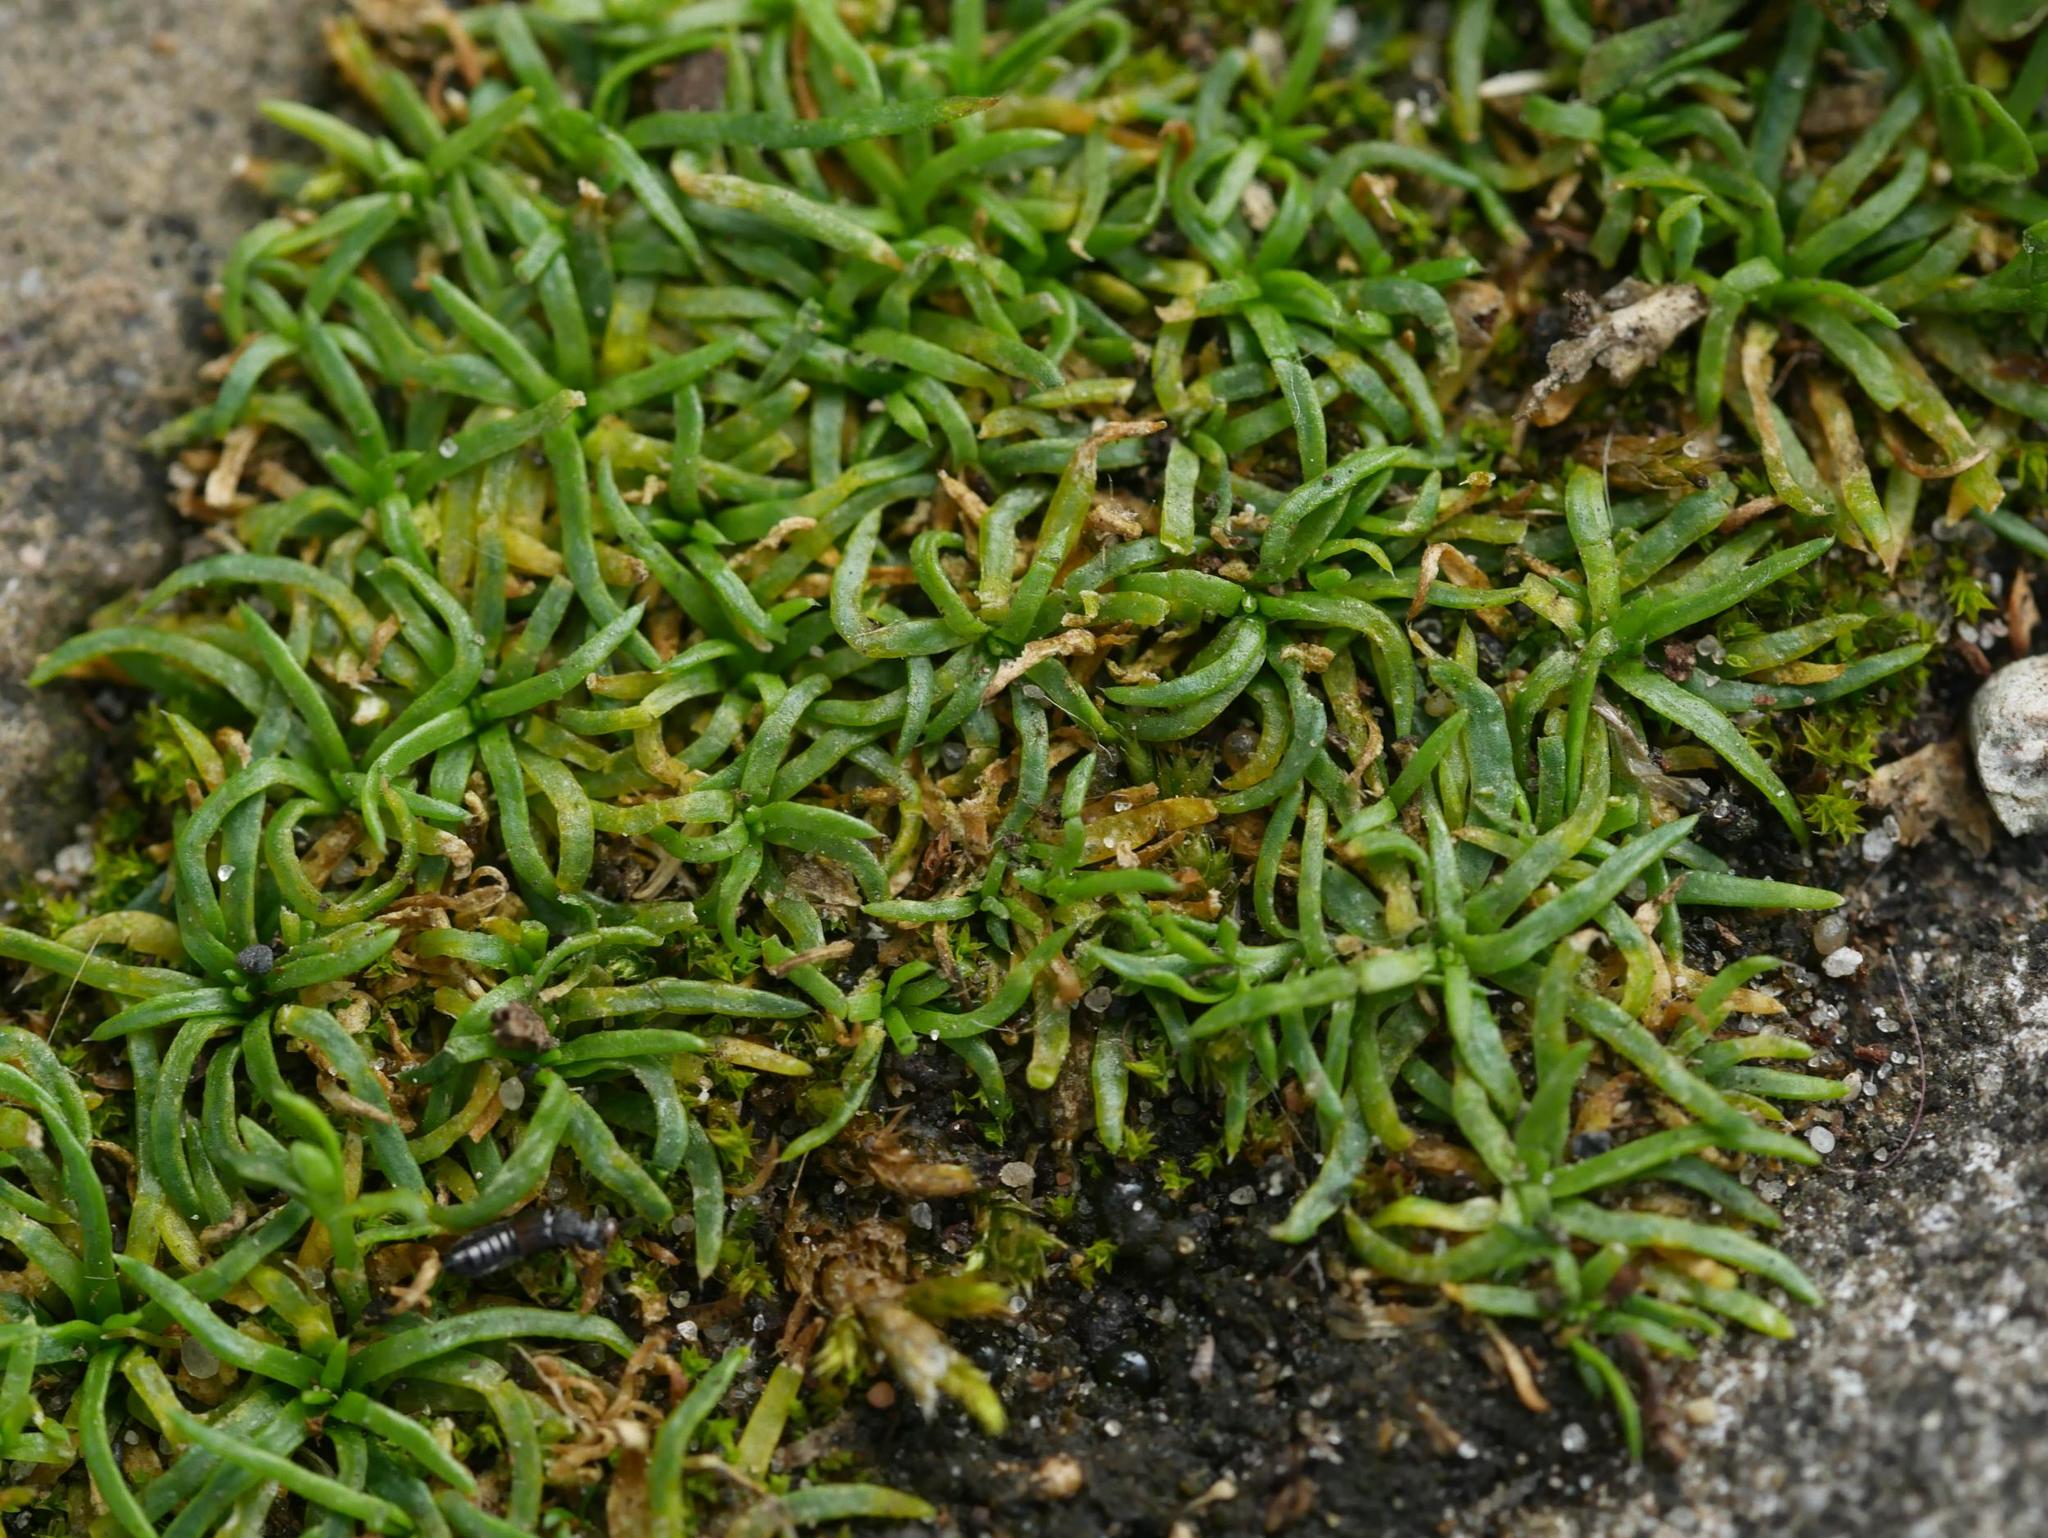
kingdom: Plantae
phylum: Tracheophyta
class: Magnoliopsida
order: Caryophyllales
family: Caryophyllaceae
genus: Sagina
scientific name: Sagina procumbens
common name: Procumbent pearlwort
